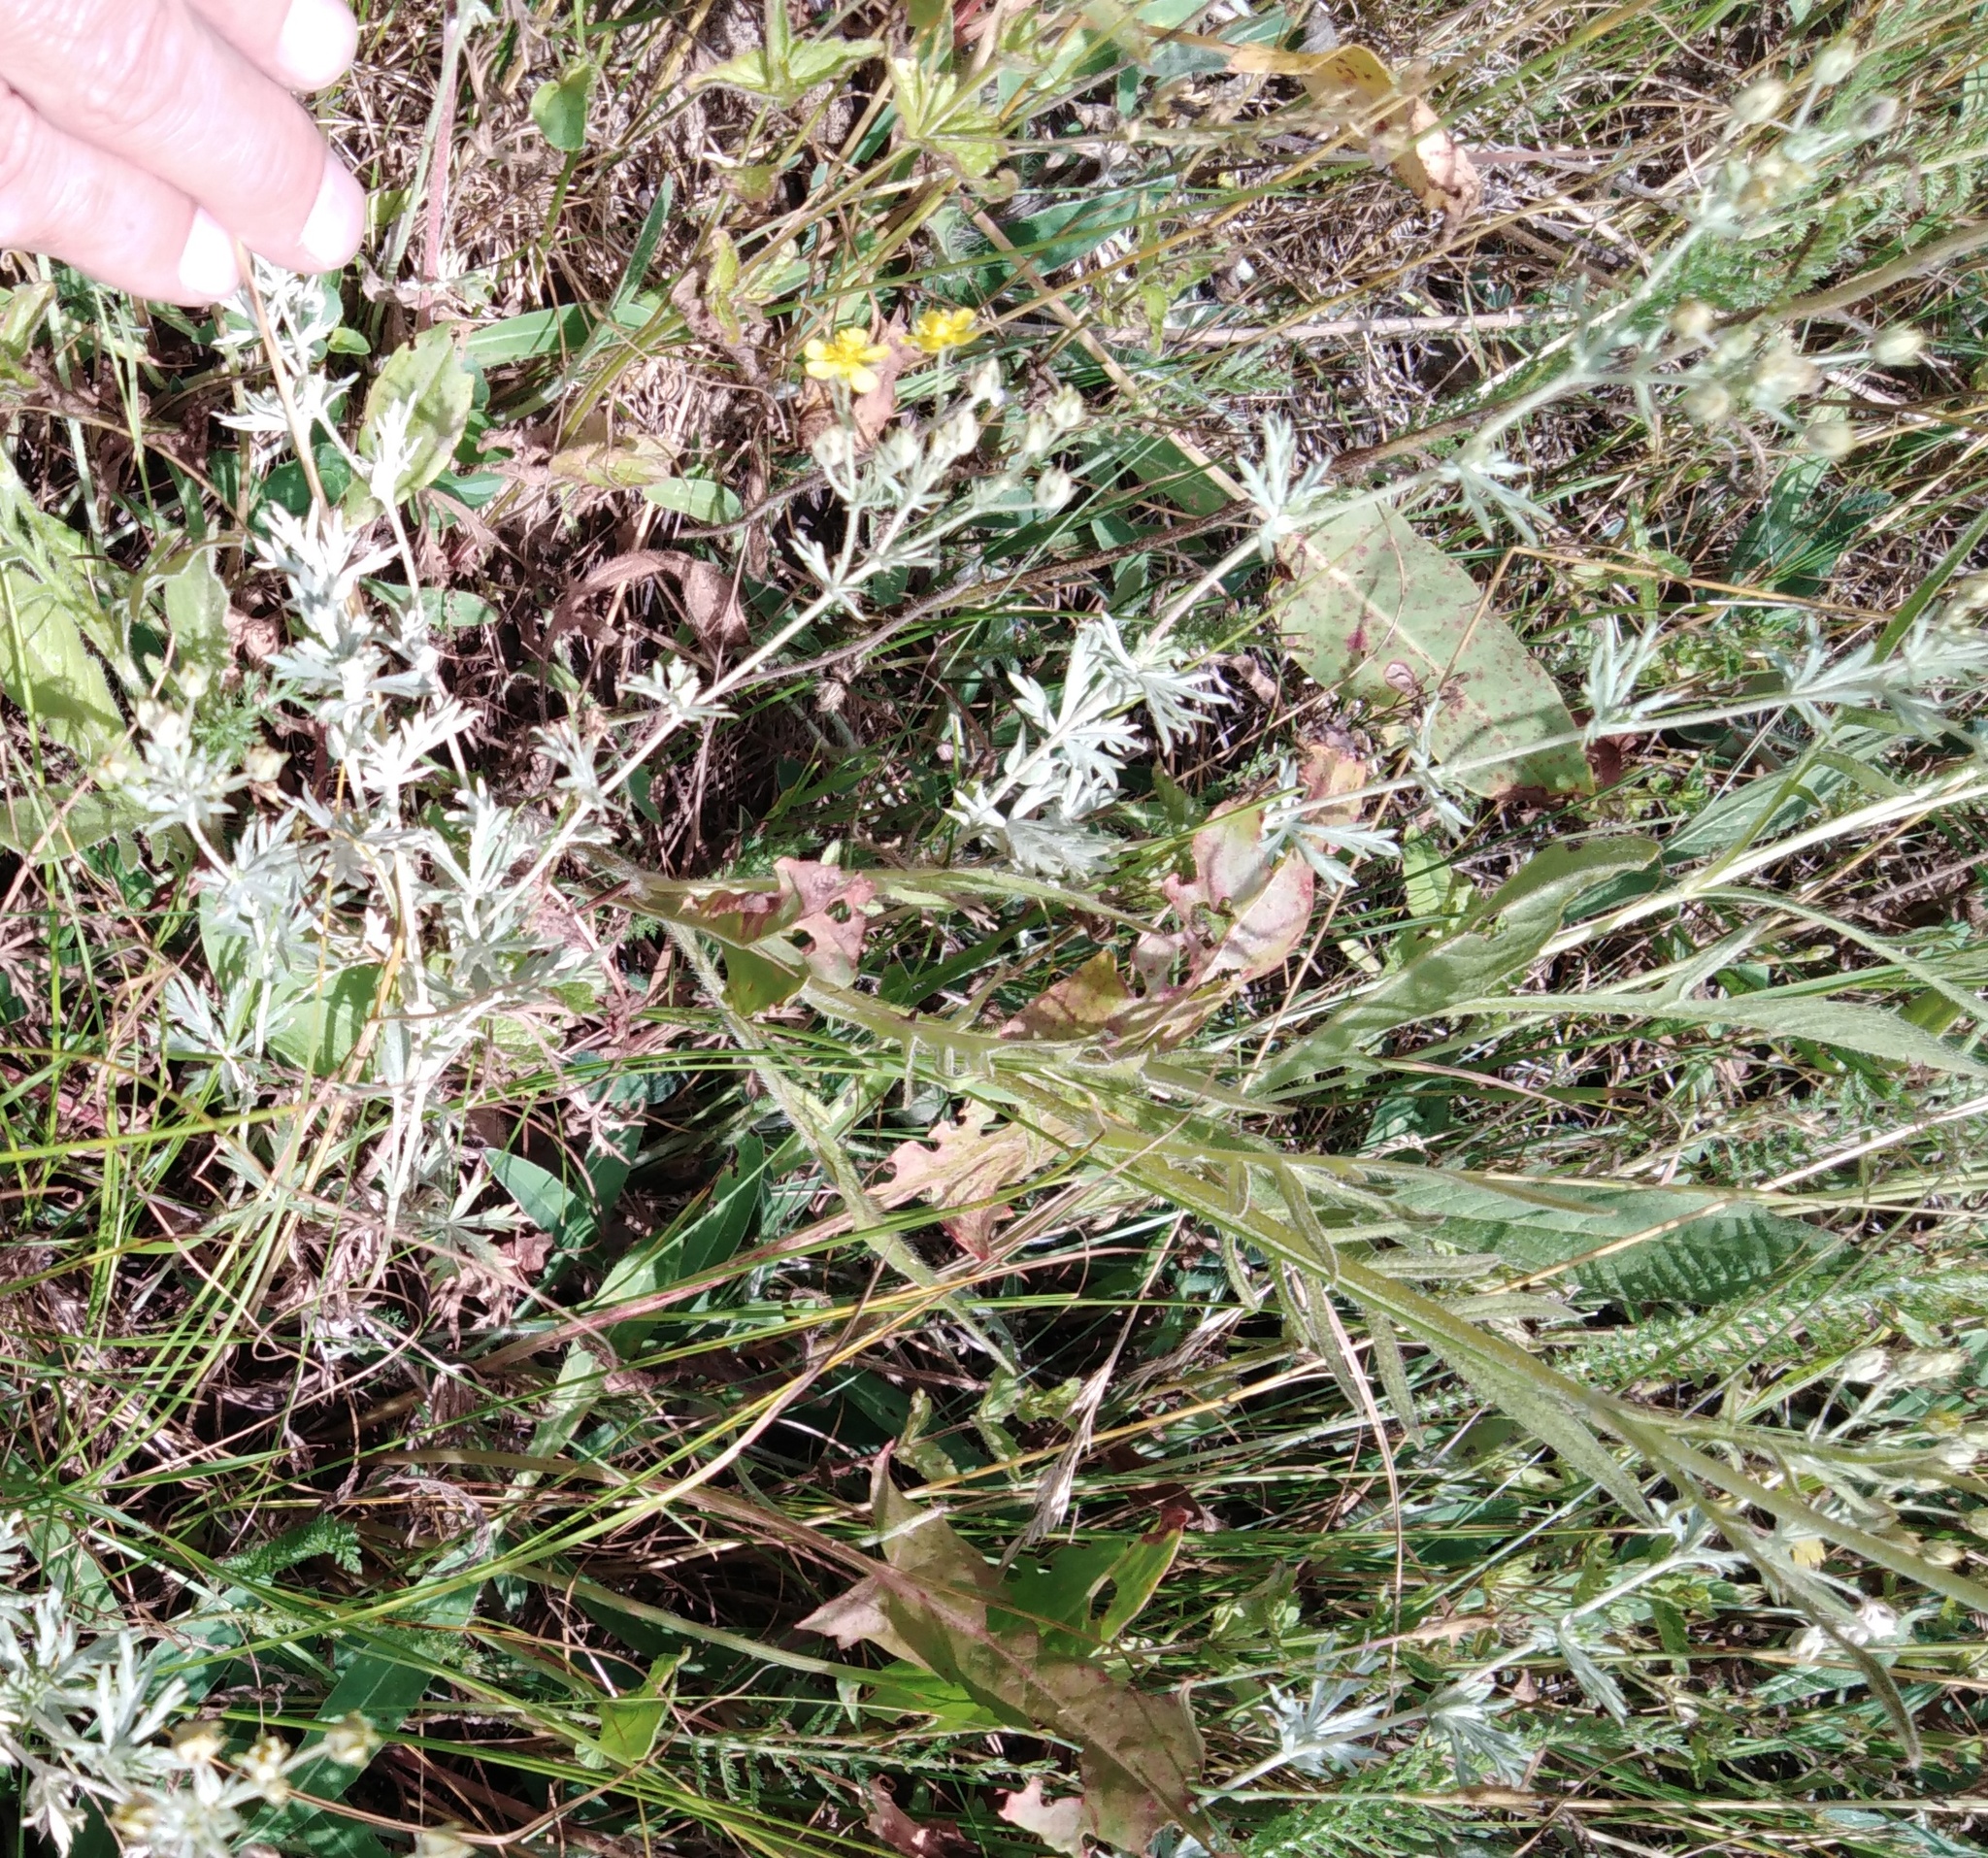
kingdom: Plantae
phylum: Tracheophyta
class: Magnoliopsida
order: Rosales
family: Rosaceae
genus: Potentilla
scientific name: Potentilla argentea
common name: Hoary cinquefoil
